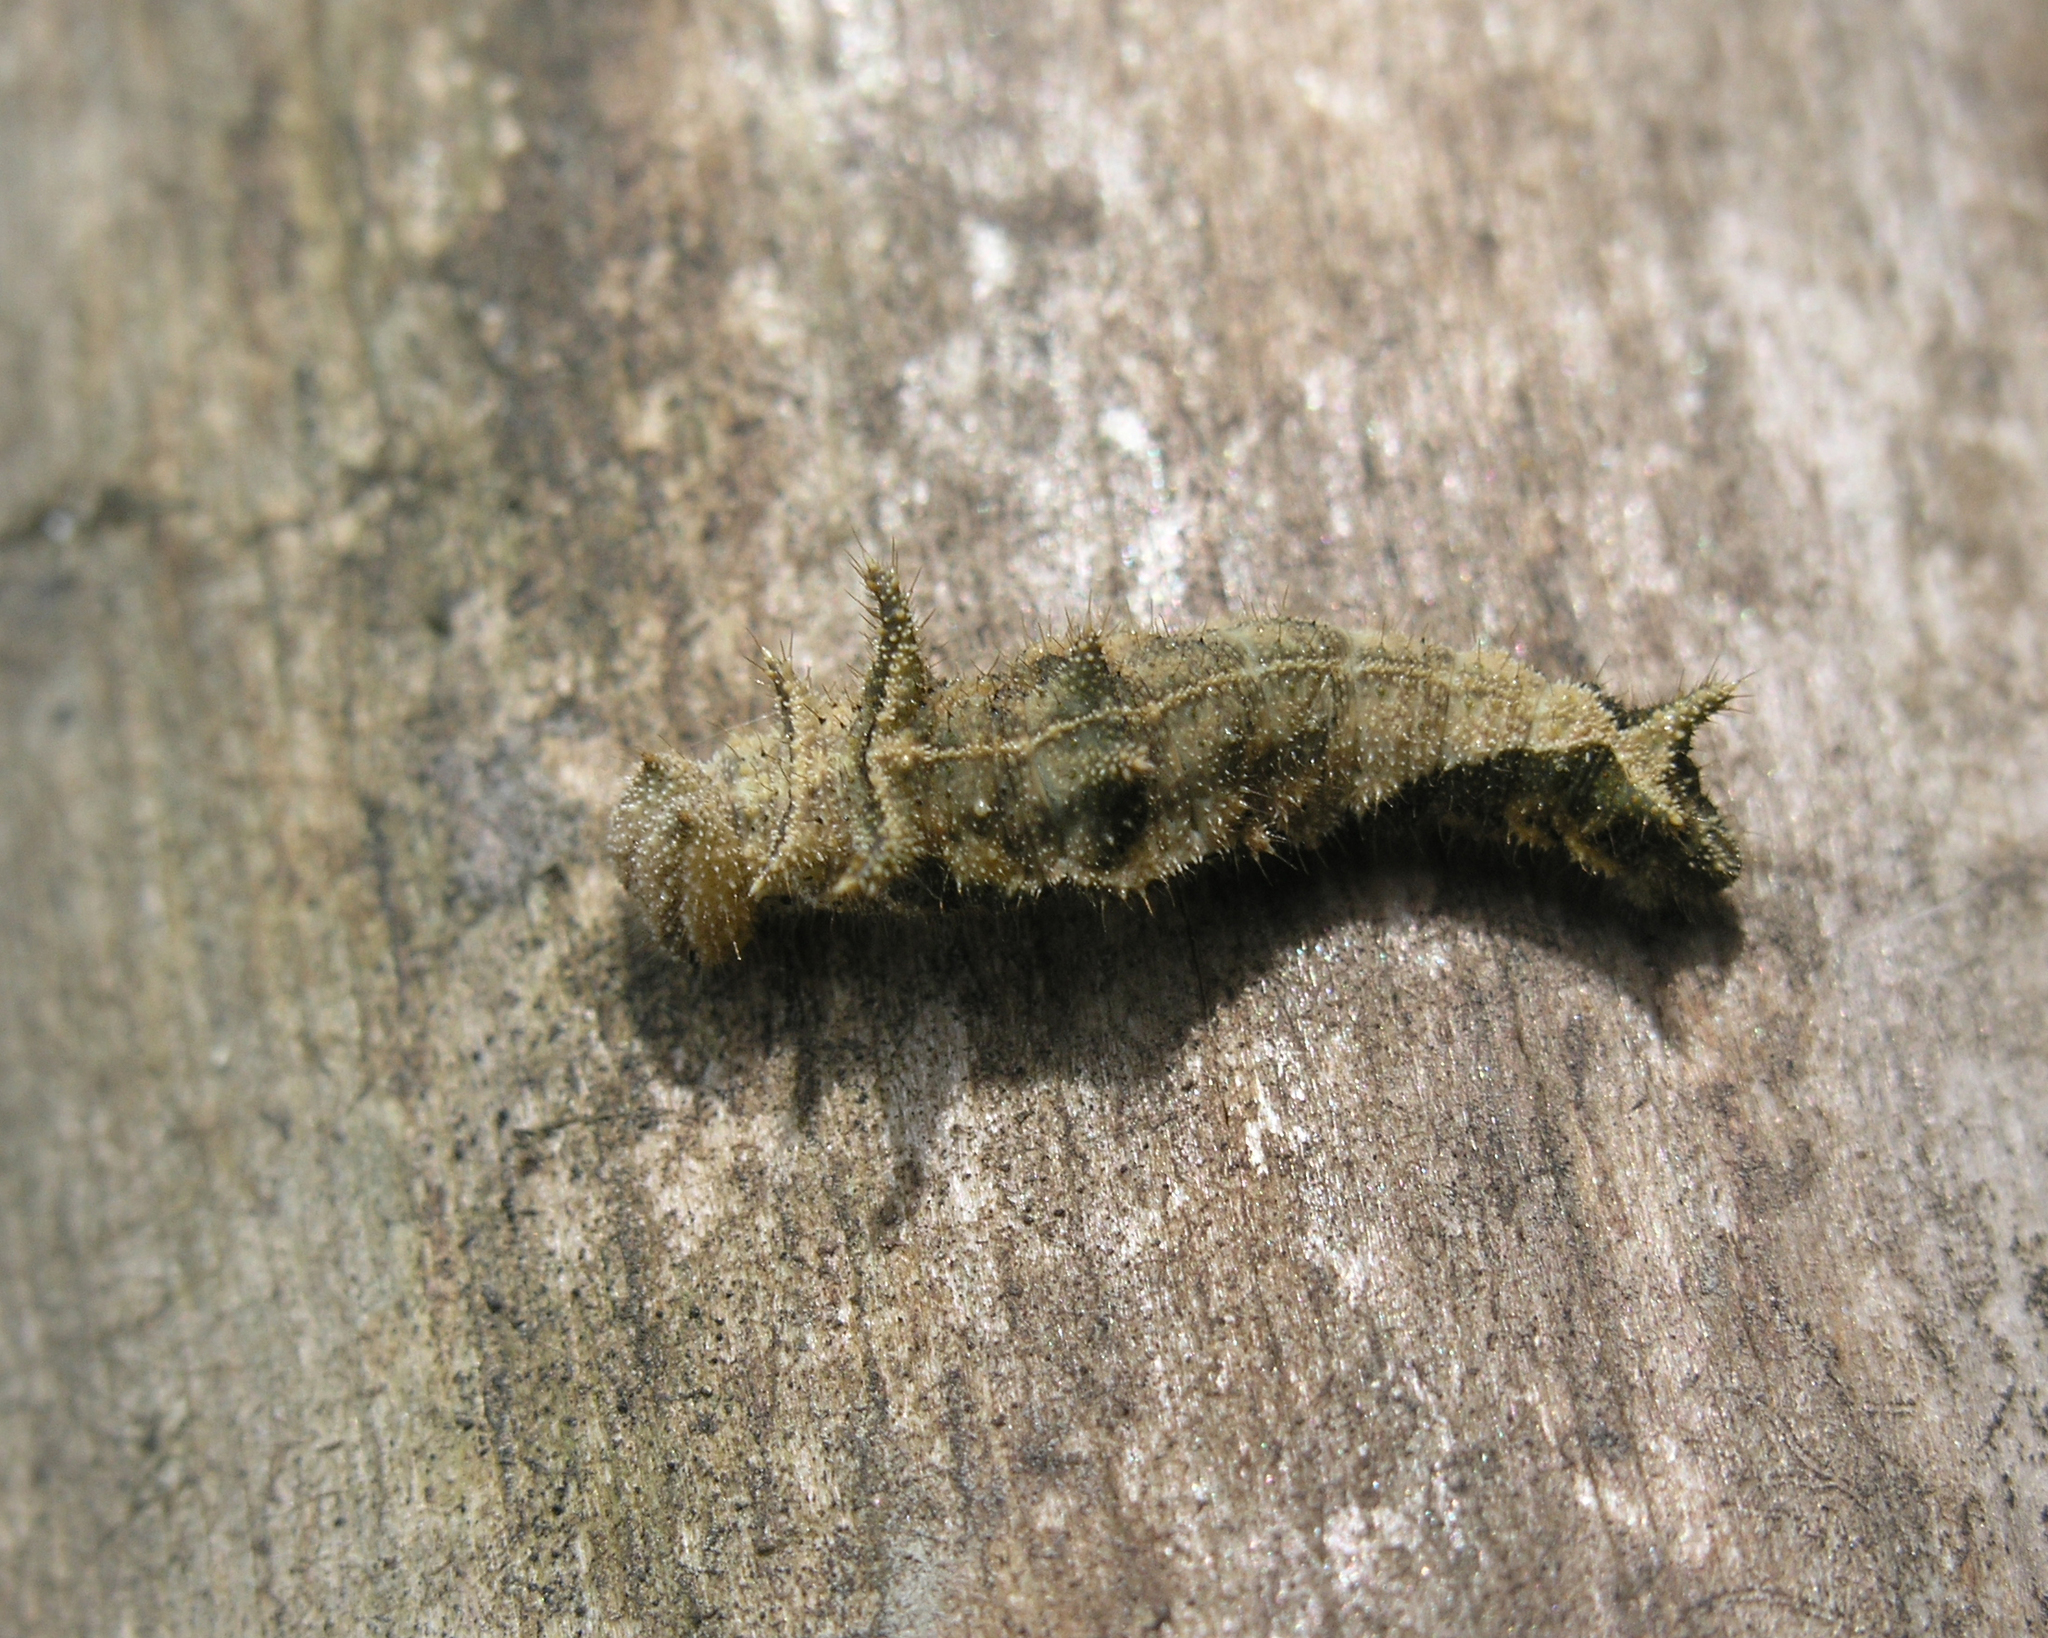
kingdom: Animalia
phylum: Arthropoda
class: Insecta
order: Lepidoptera
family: Nymphalidae
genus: Neptis
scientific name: Neptis sappho
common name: Common glider
